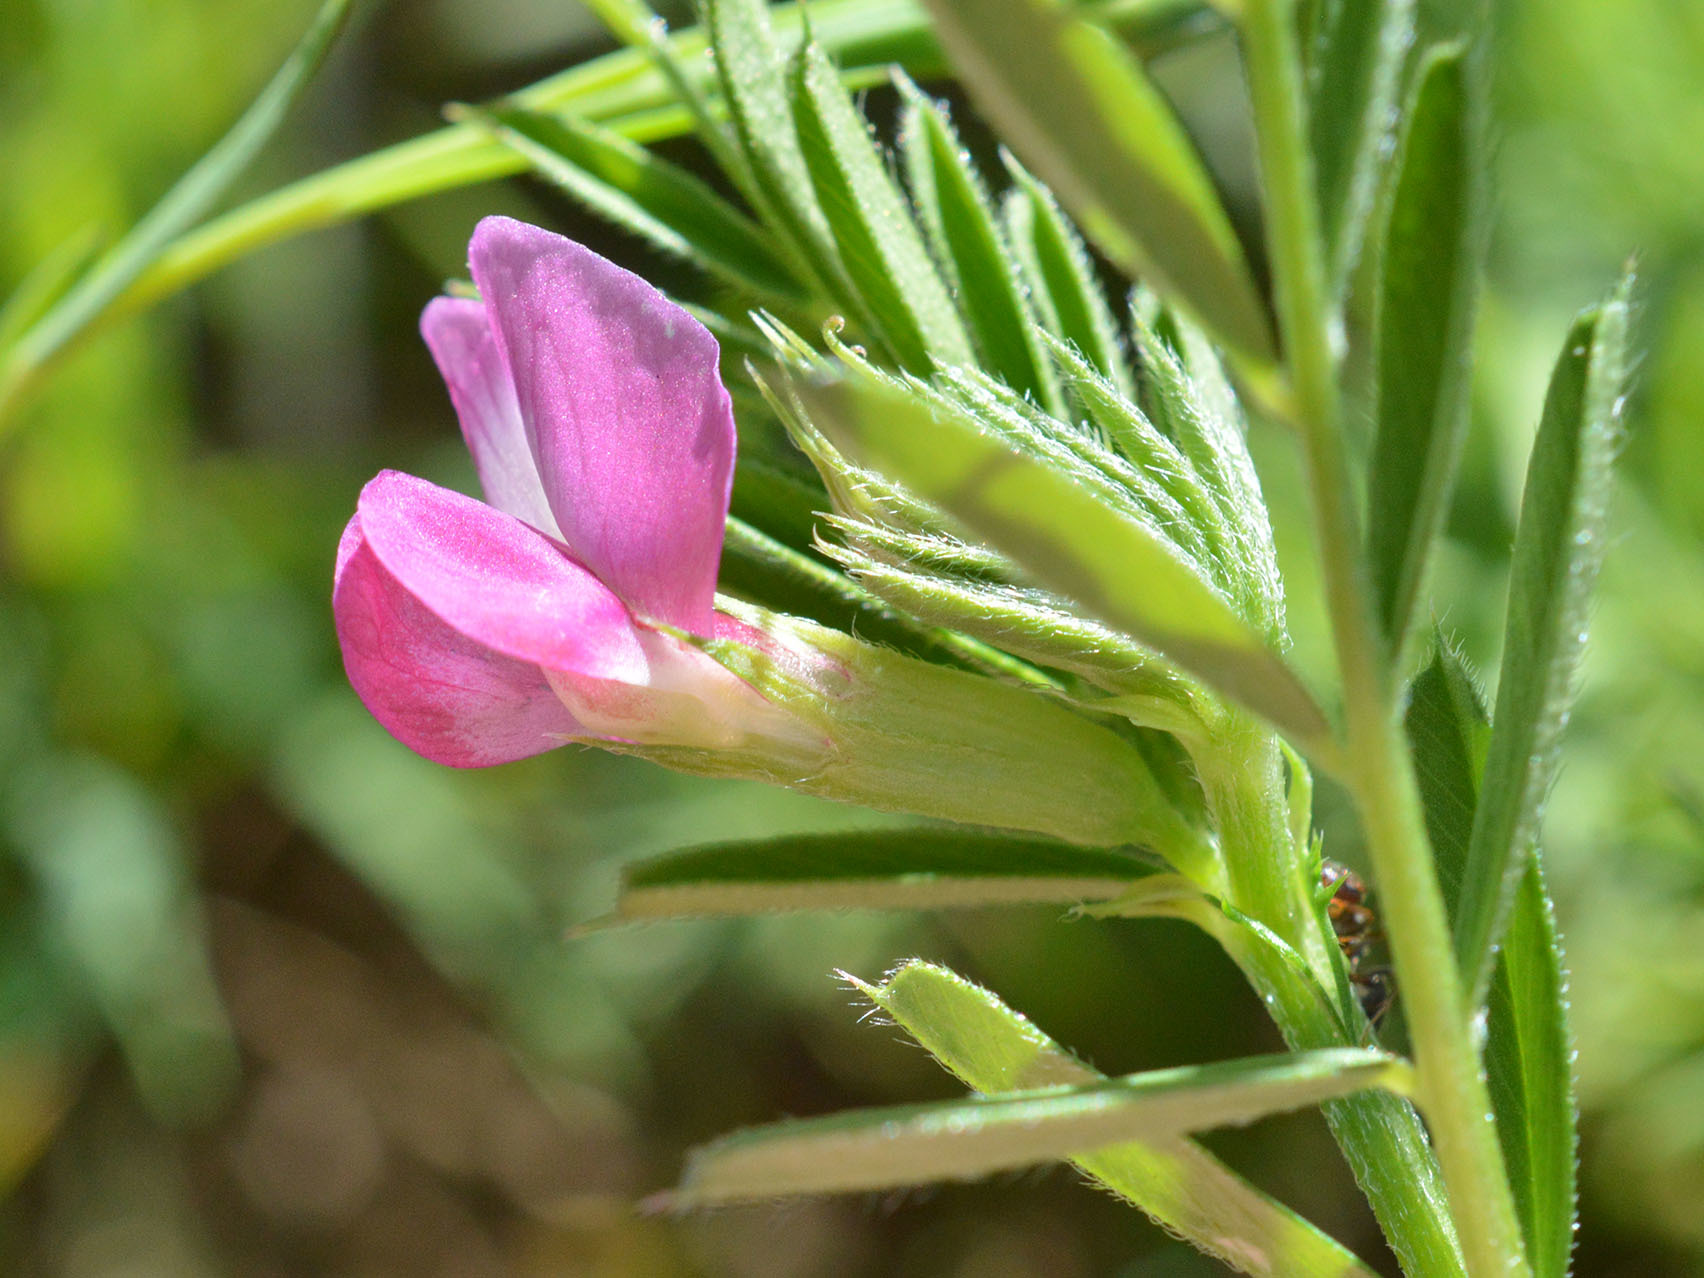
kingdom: Plantae
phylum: Tracheophyta
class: Magnoliopsida
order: Fabales
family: Fabaceae
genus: Vicia
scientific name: Vicia sativa
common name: Garden vetch
